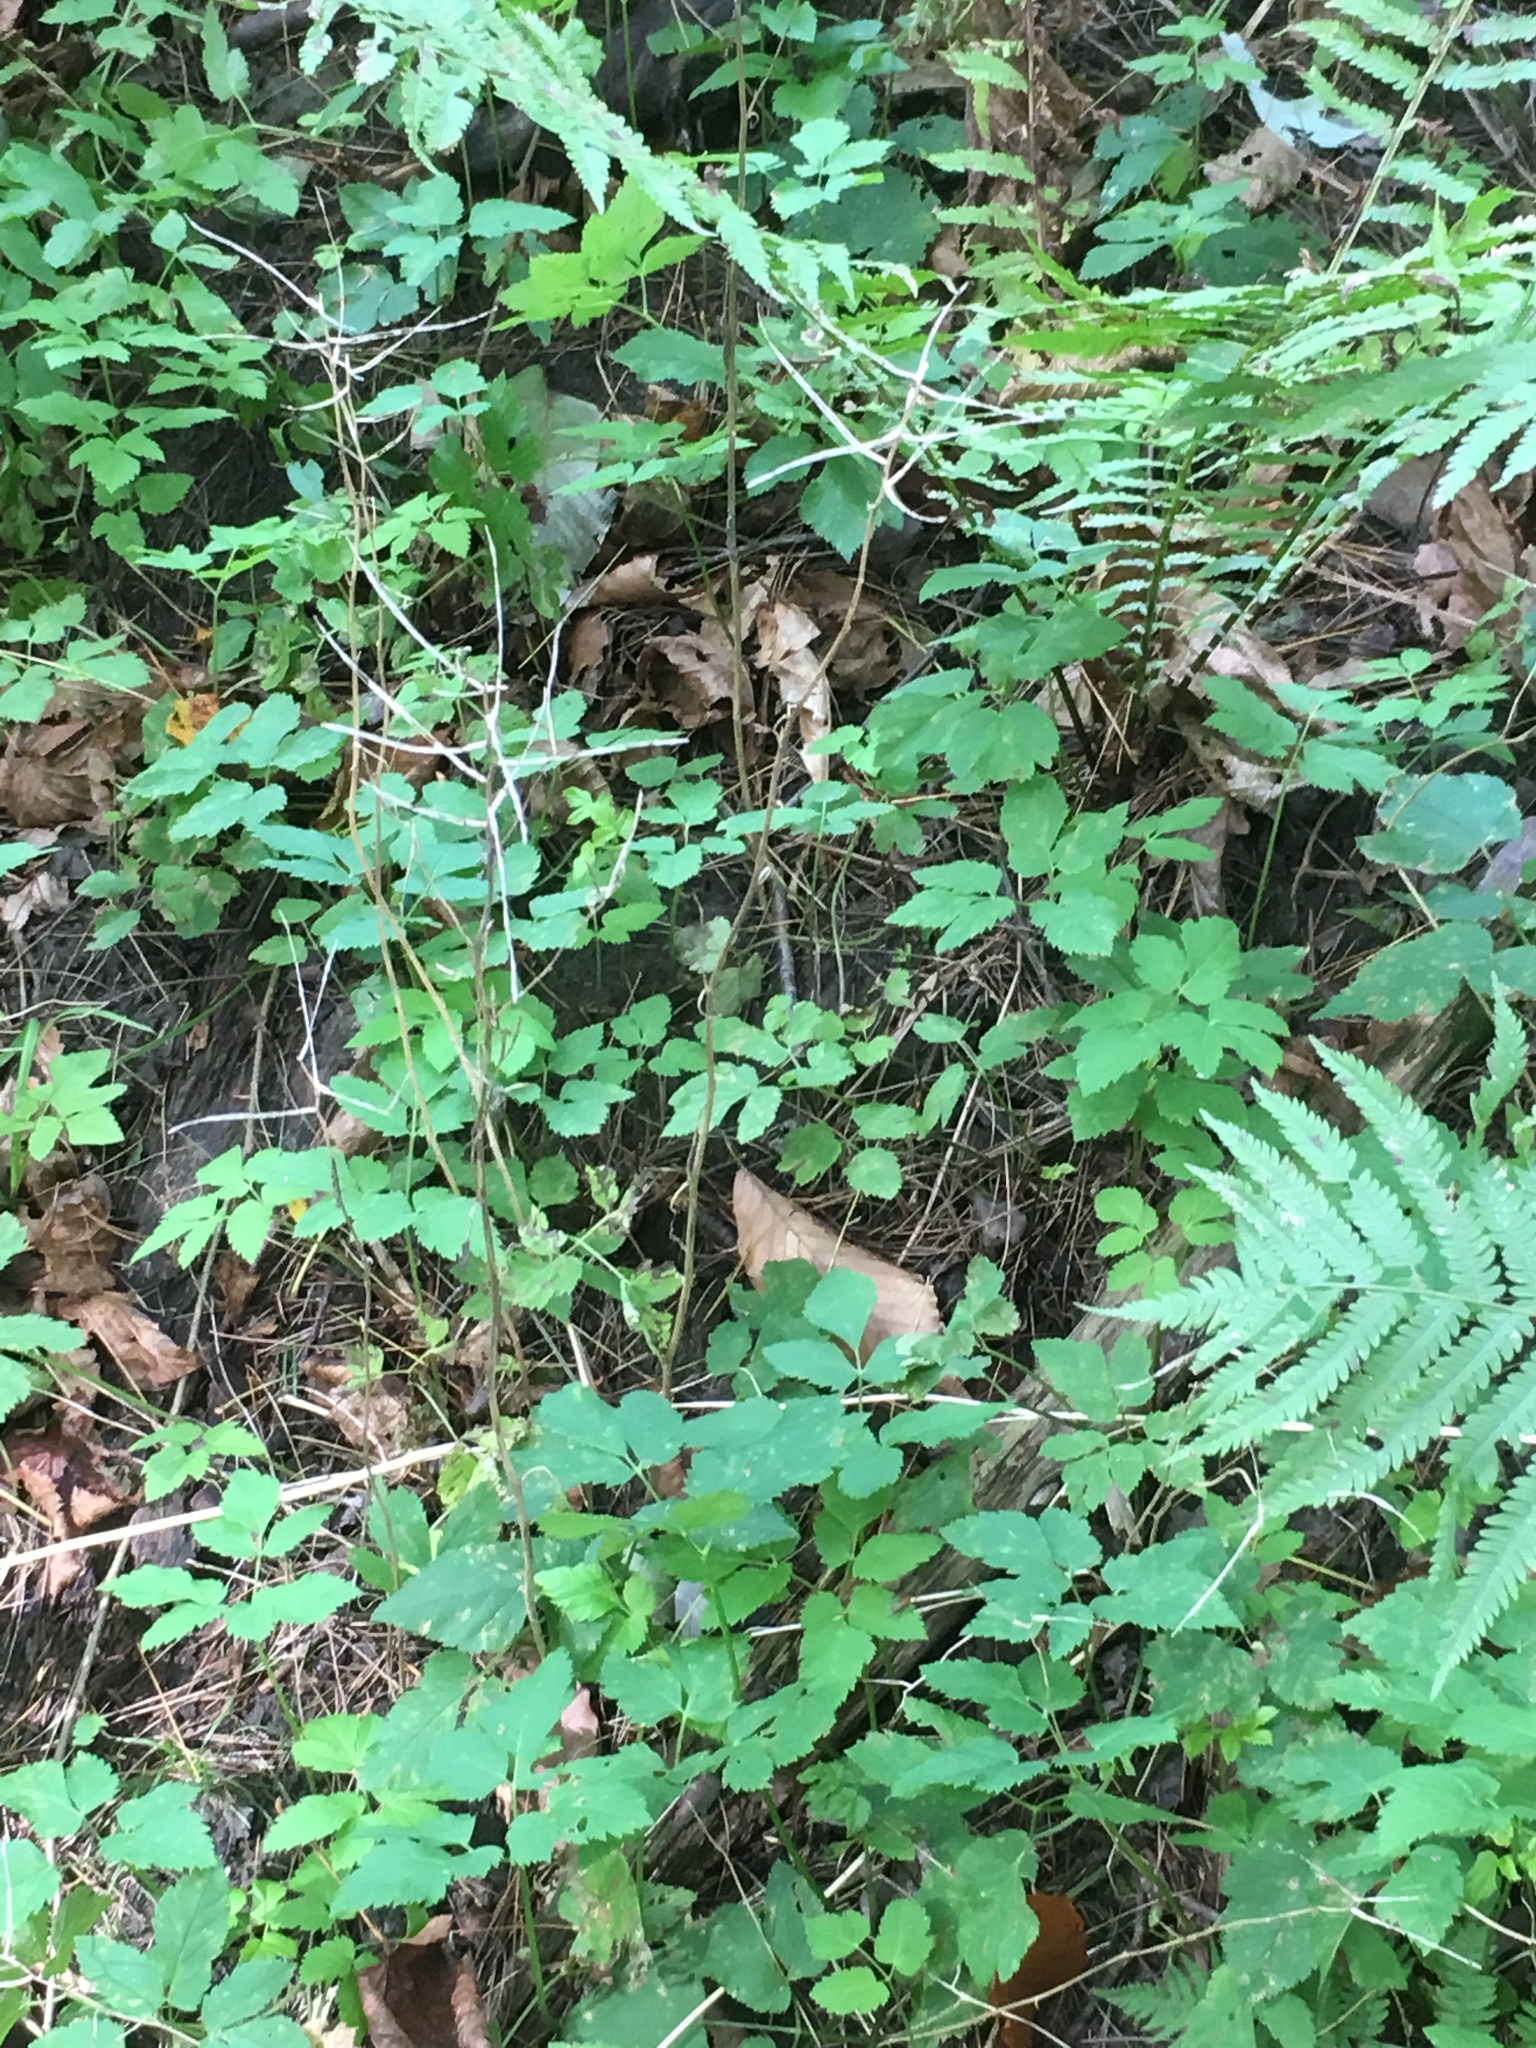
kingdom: Plantae
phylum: Tracheophyta
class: Magnoliopsida
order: Brassicales
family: Brassicaceae
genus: Alliaria
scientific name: Alliaria petiolata
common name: Garlic mustard
